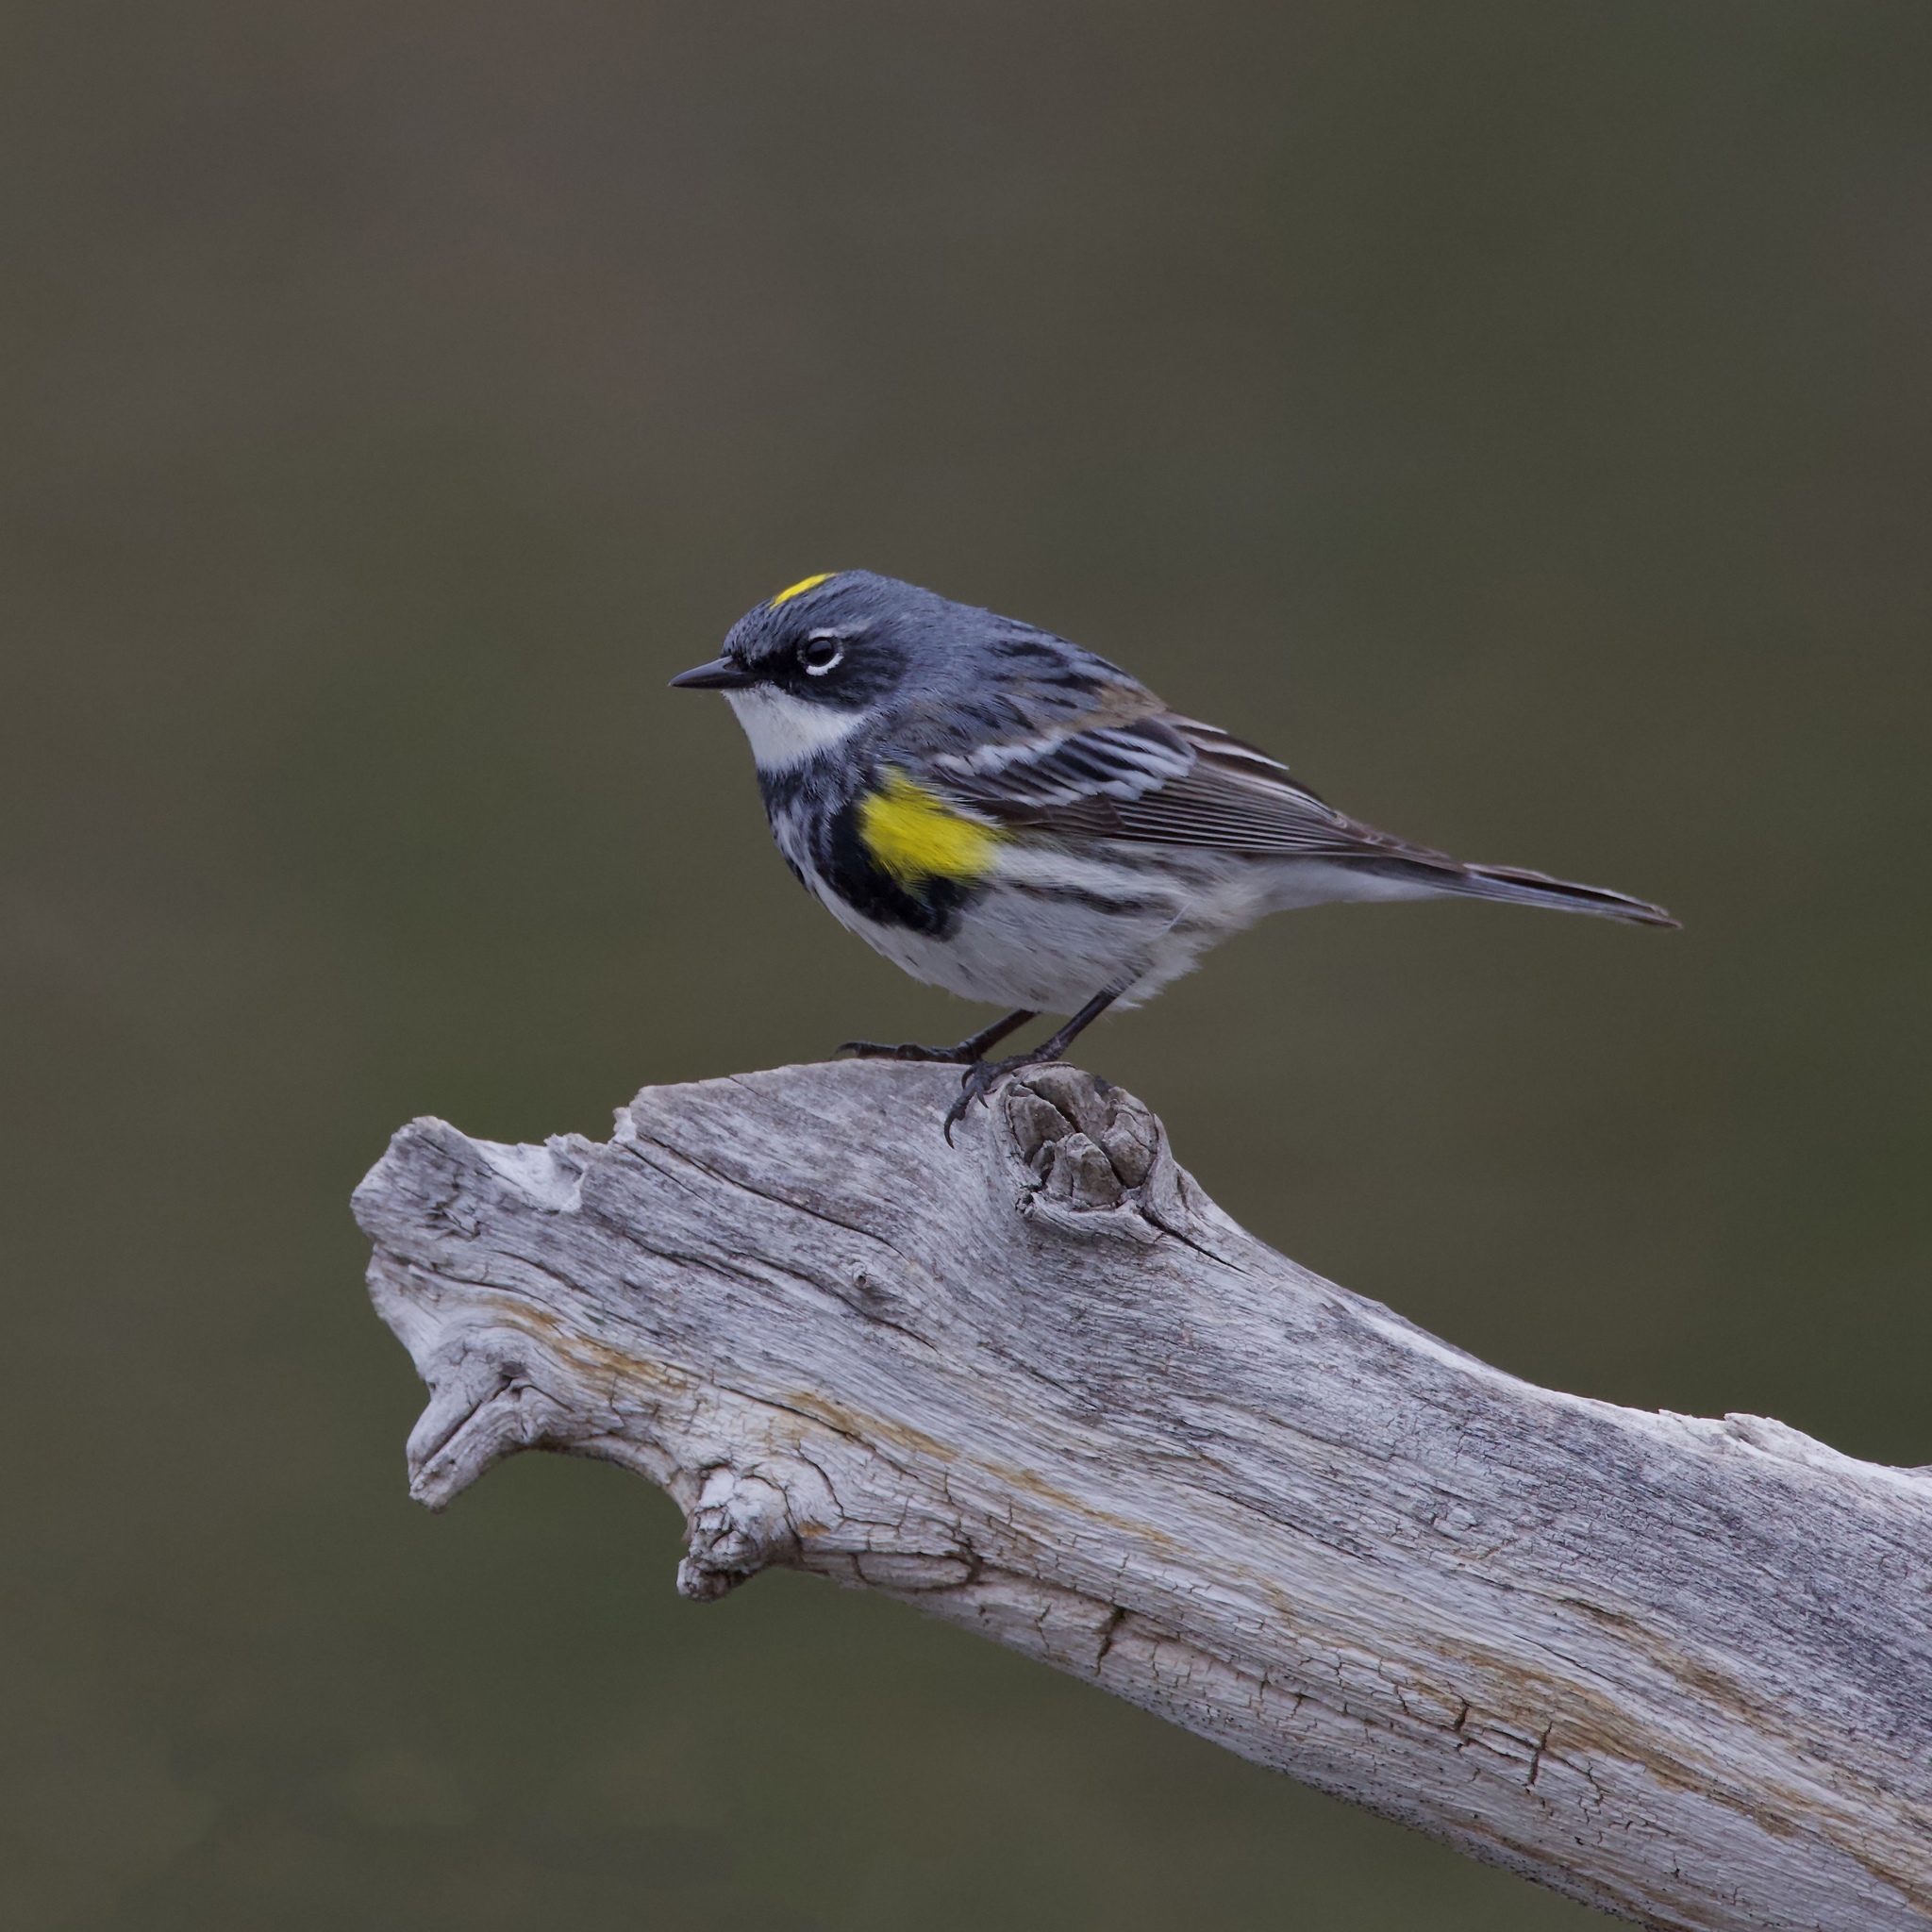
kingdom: Animalia
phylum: Chordata
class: Aves
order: Passeriformes
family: Parulidae
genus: Setophaga
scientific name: Setophaga coronata
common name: Myrtle warbler
